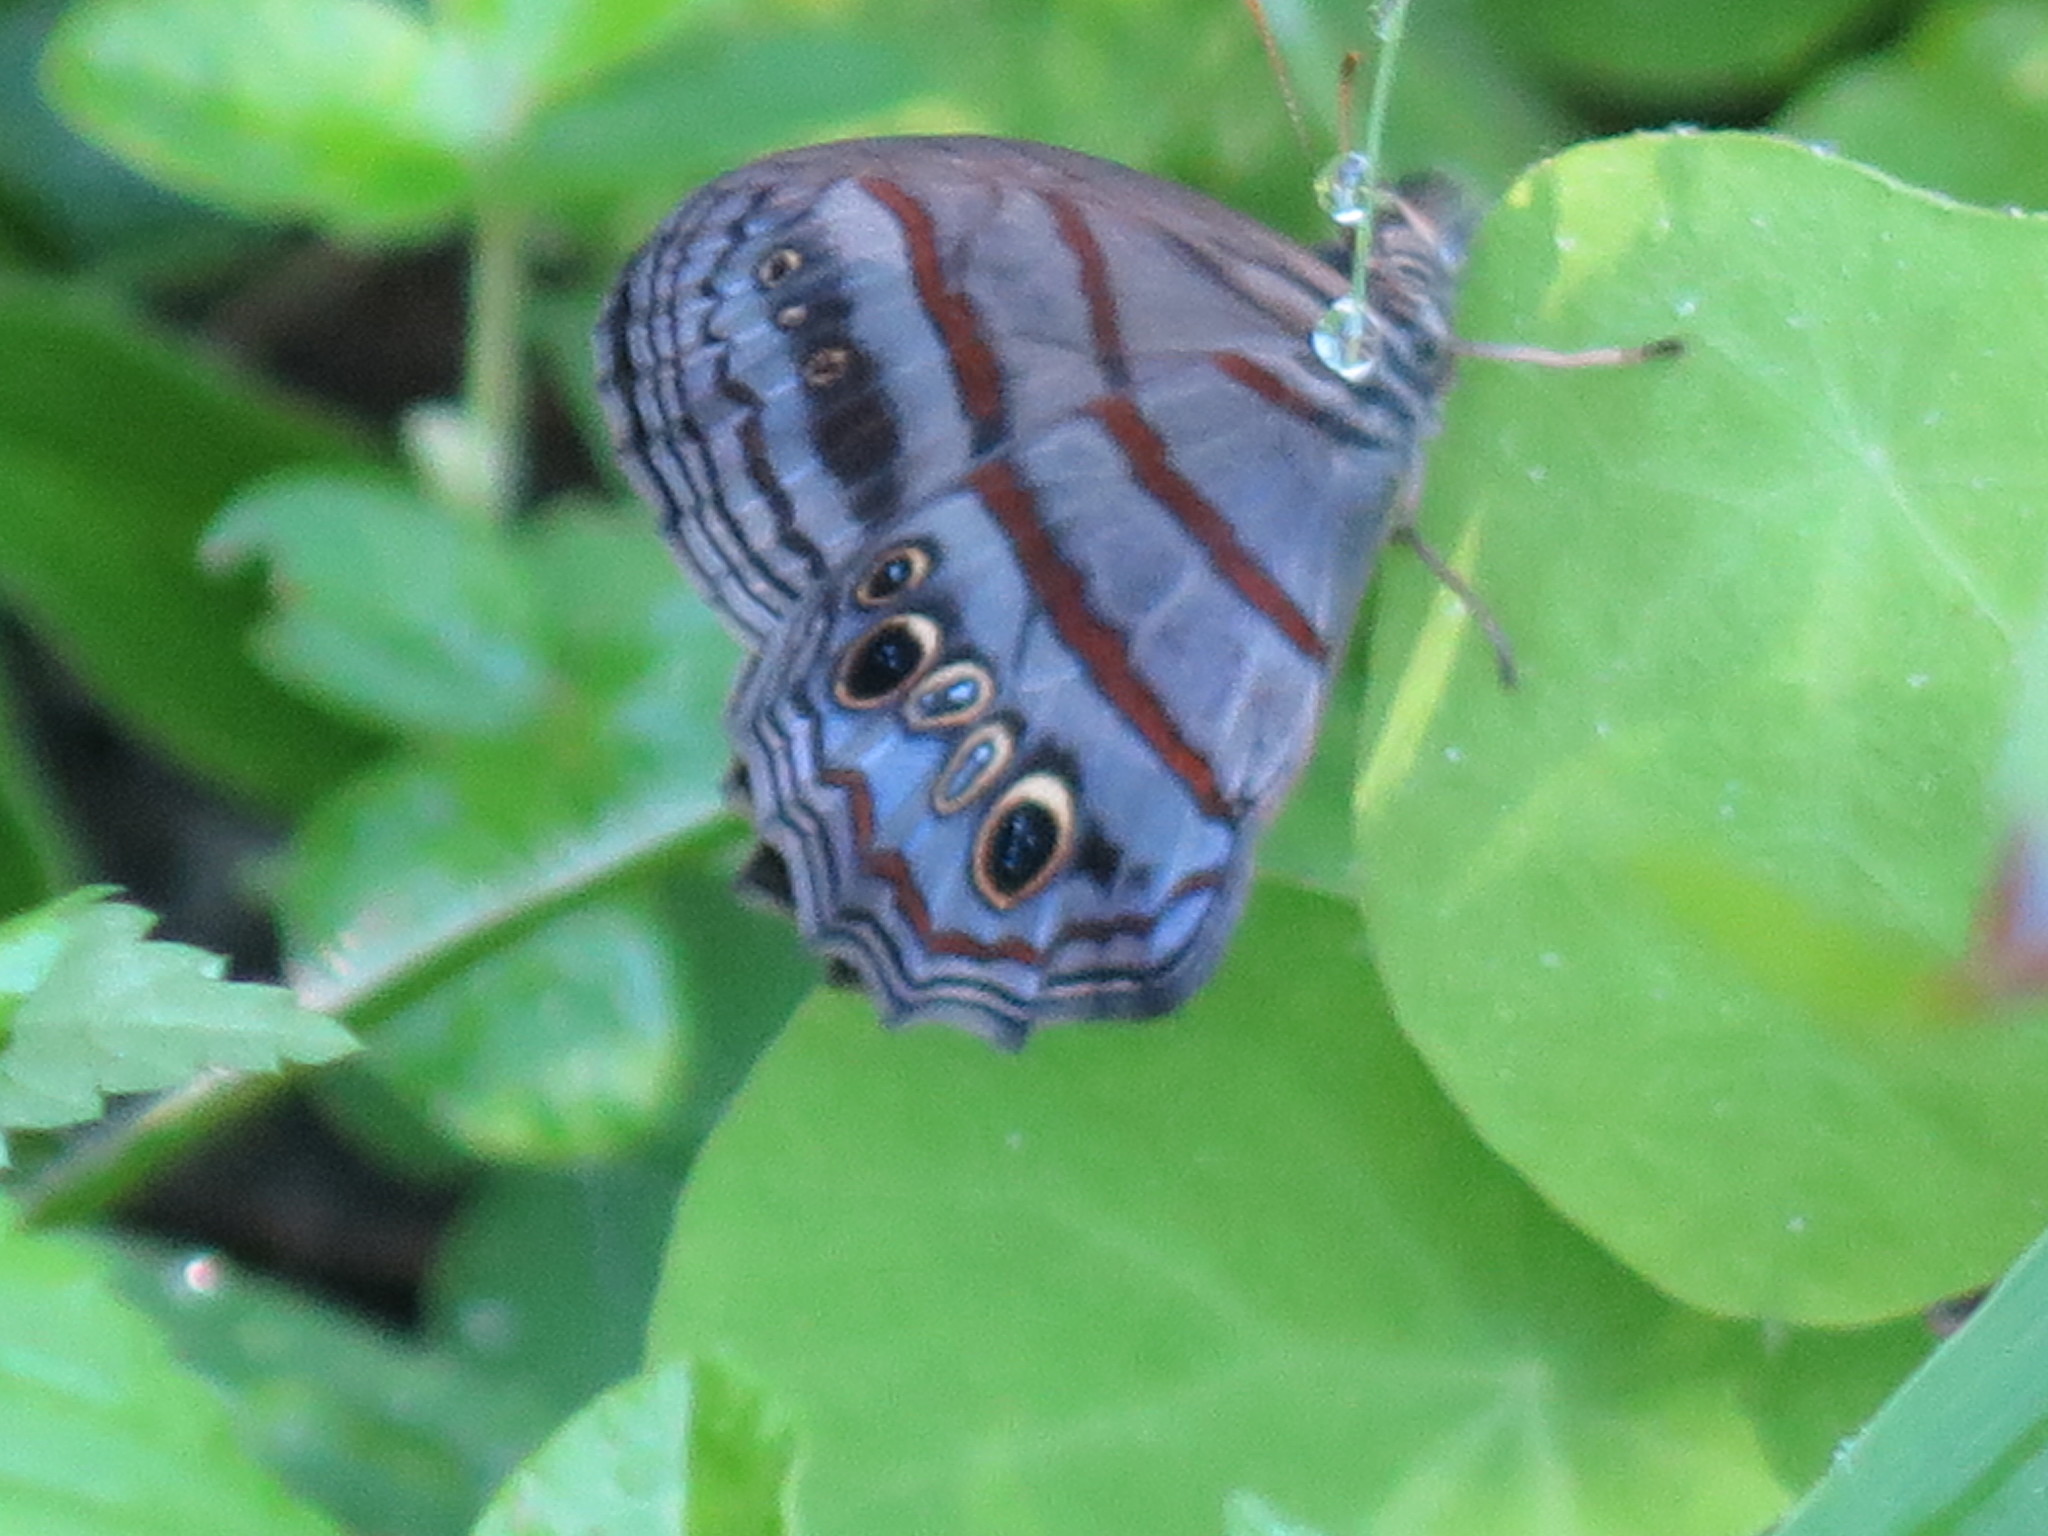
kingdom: Animalia
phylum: Arthropoda
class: Insecta
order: Lepidoptera
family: Nymphalidae
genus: Magneuptychia
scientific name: Magneuptychia libye
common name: Blue-gray satyr
